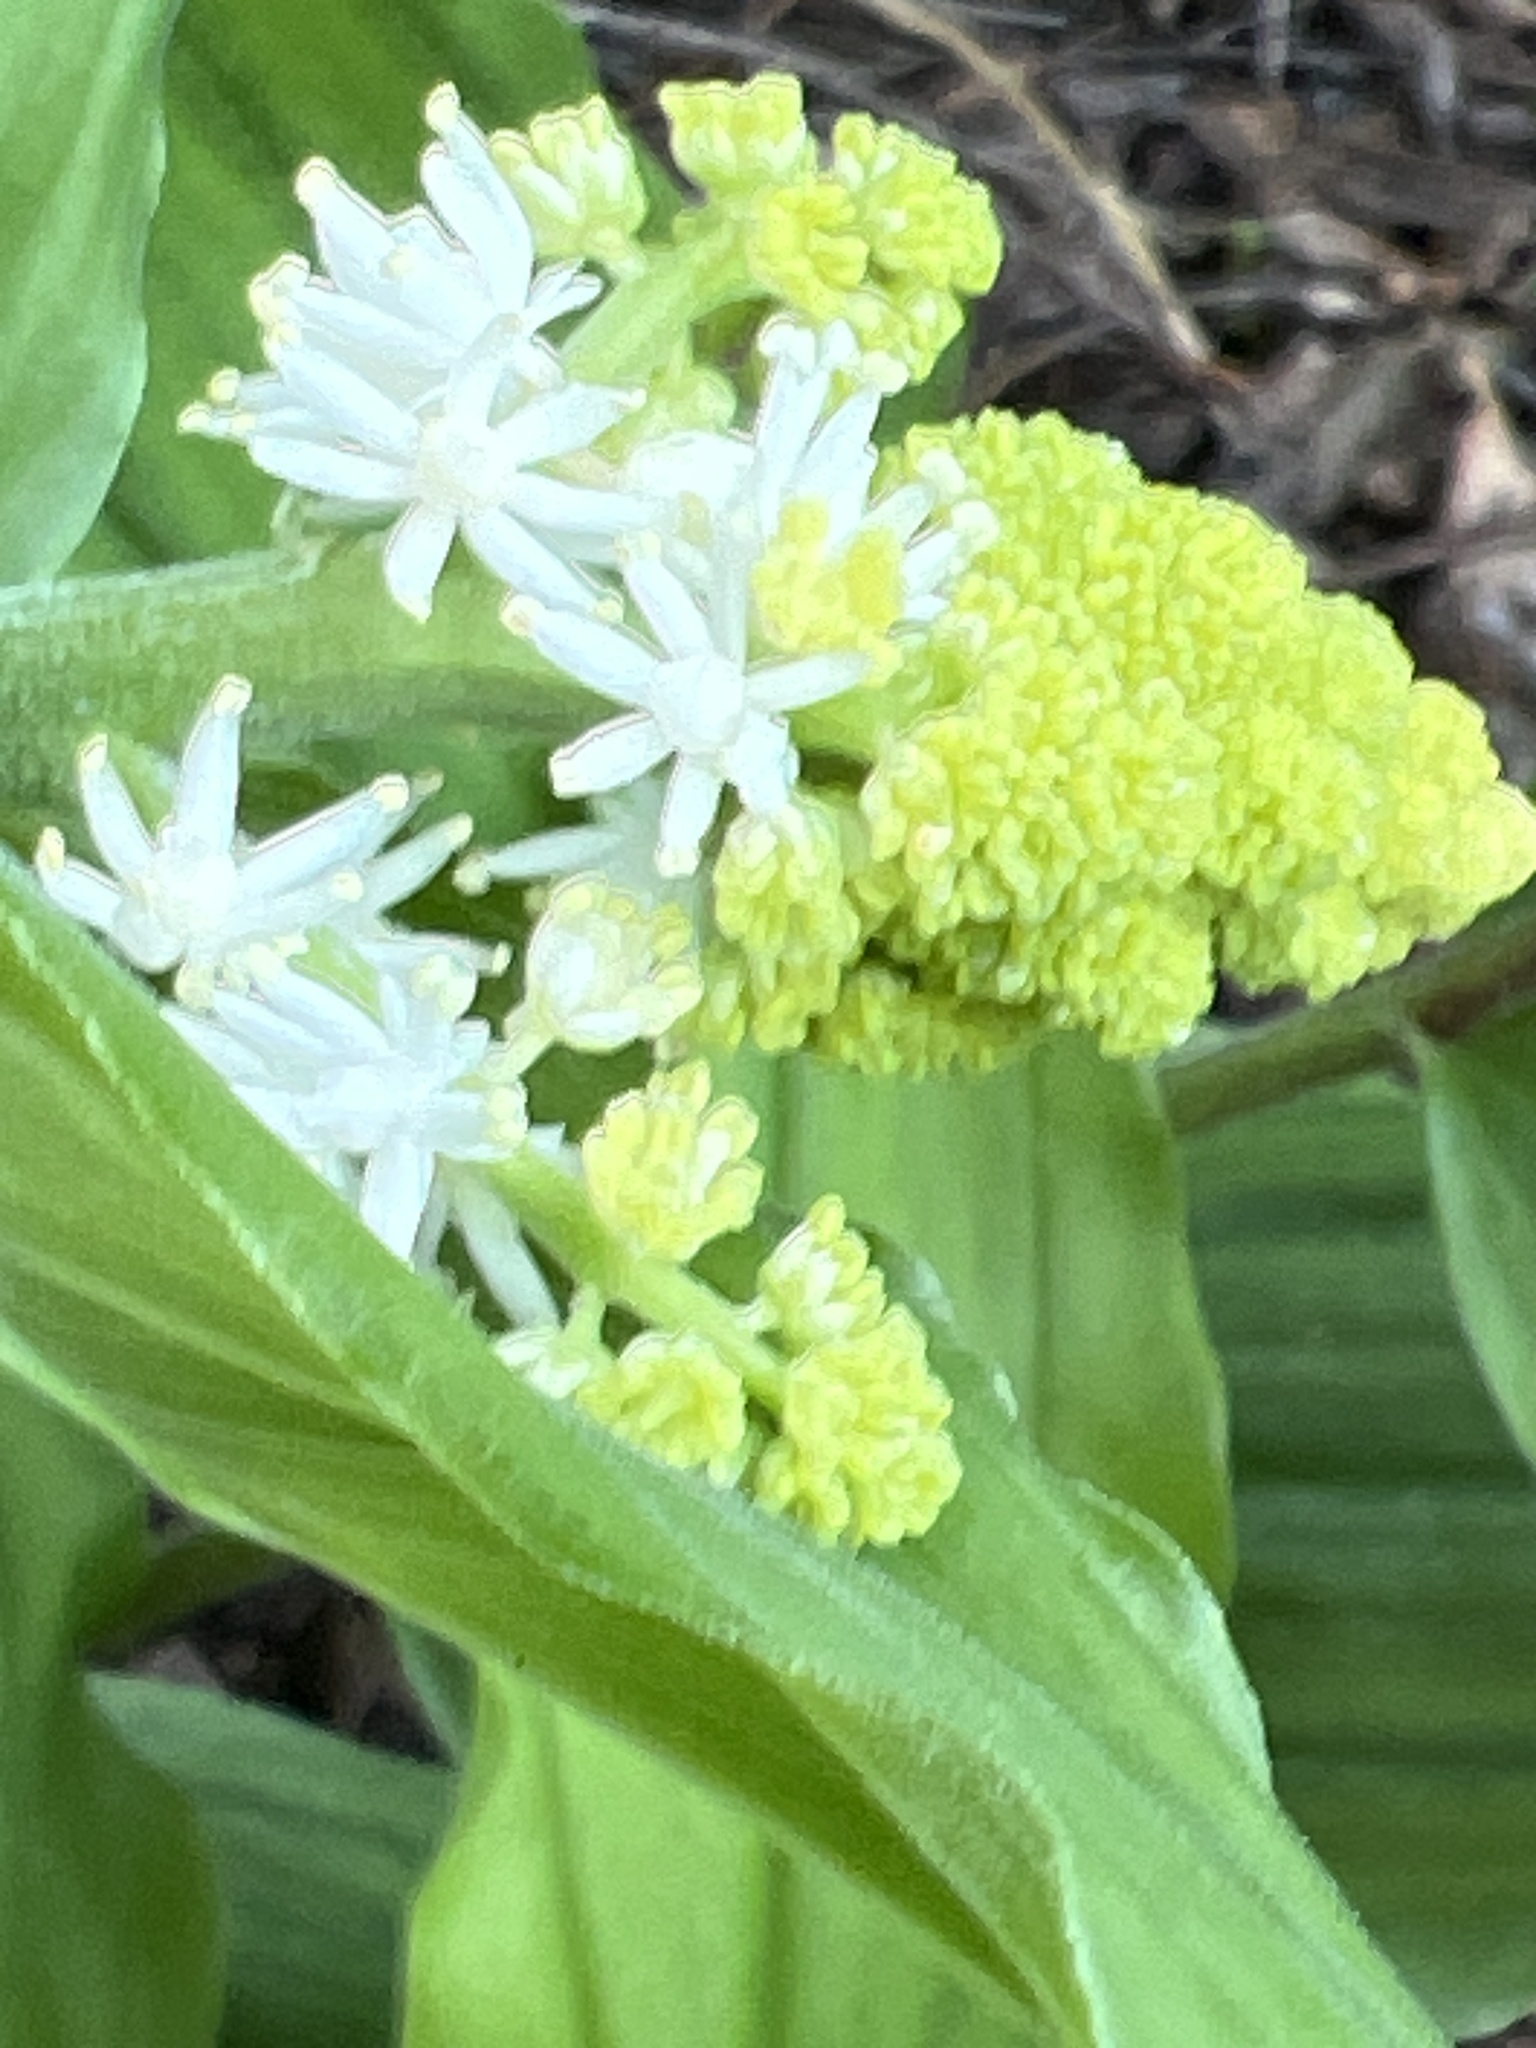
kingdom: Plantae
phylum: Tracheophyta
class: Liliopsida
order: Asparagales
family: Asparagaceae
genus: Maianthemum
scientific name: Maianthemum racemosum
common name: False spikenard
